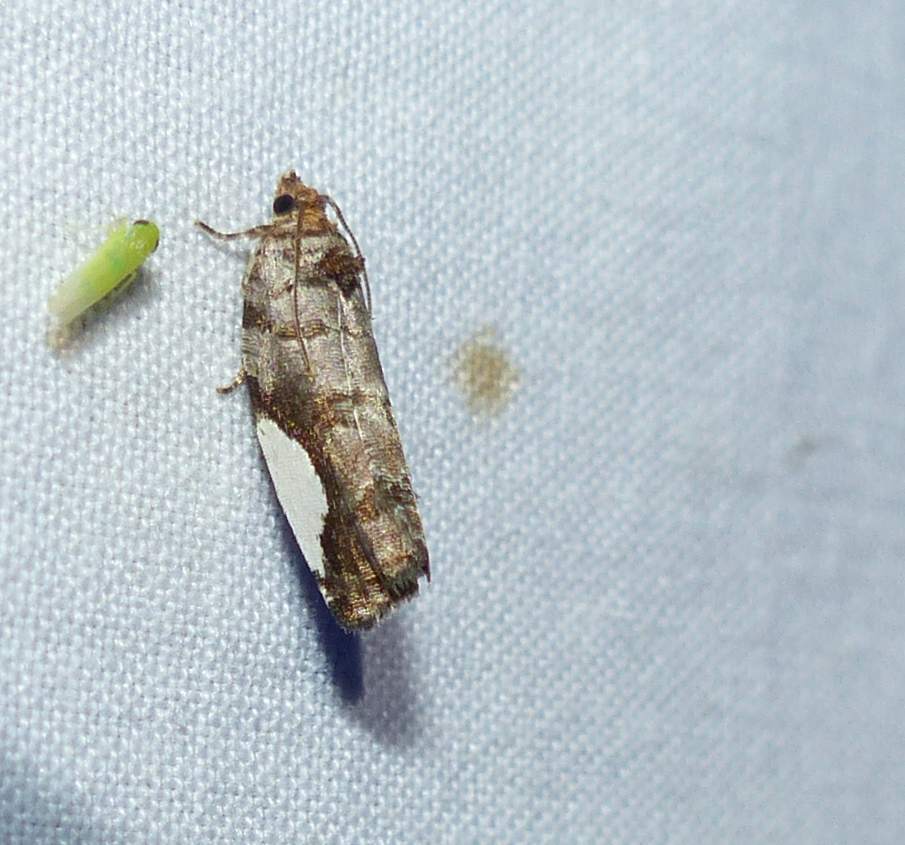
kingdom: Animalia
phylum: Arthropoda
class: Insecta
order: Lepidoptera
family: Tortricidae
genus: Hedya
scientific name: Hedya chionosema
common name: White-spotted hedya moth
